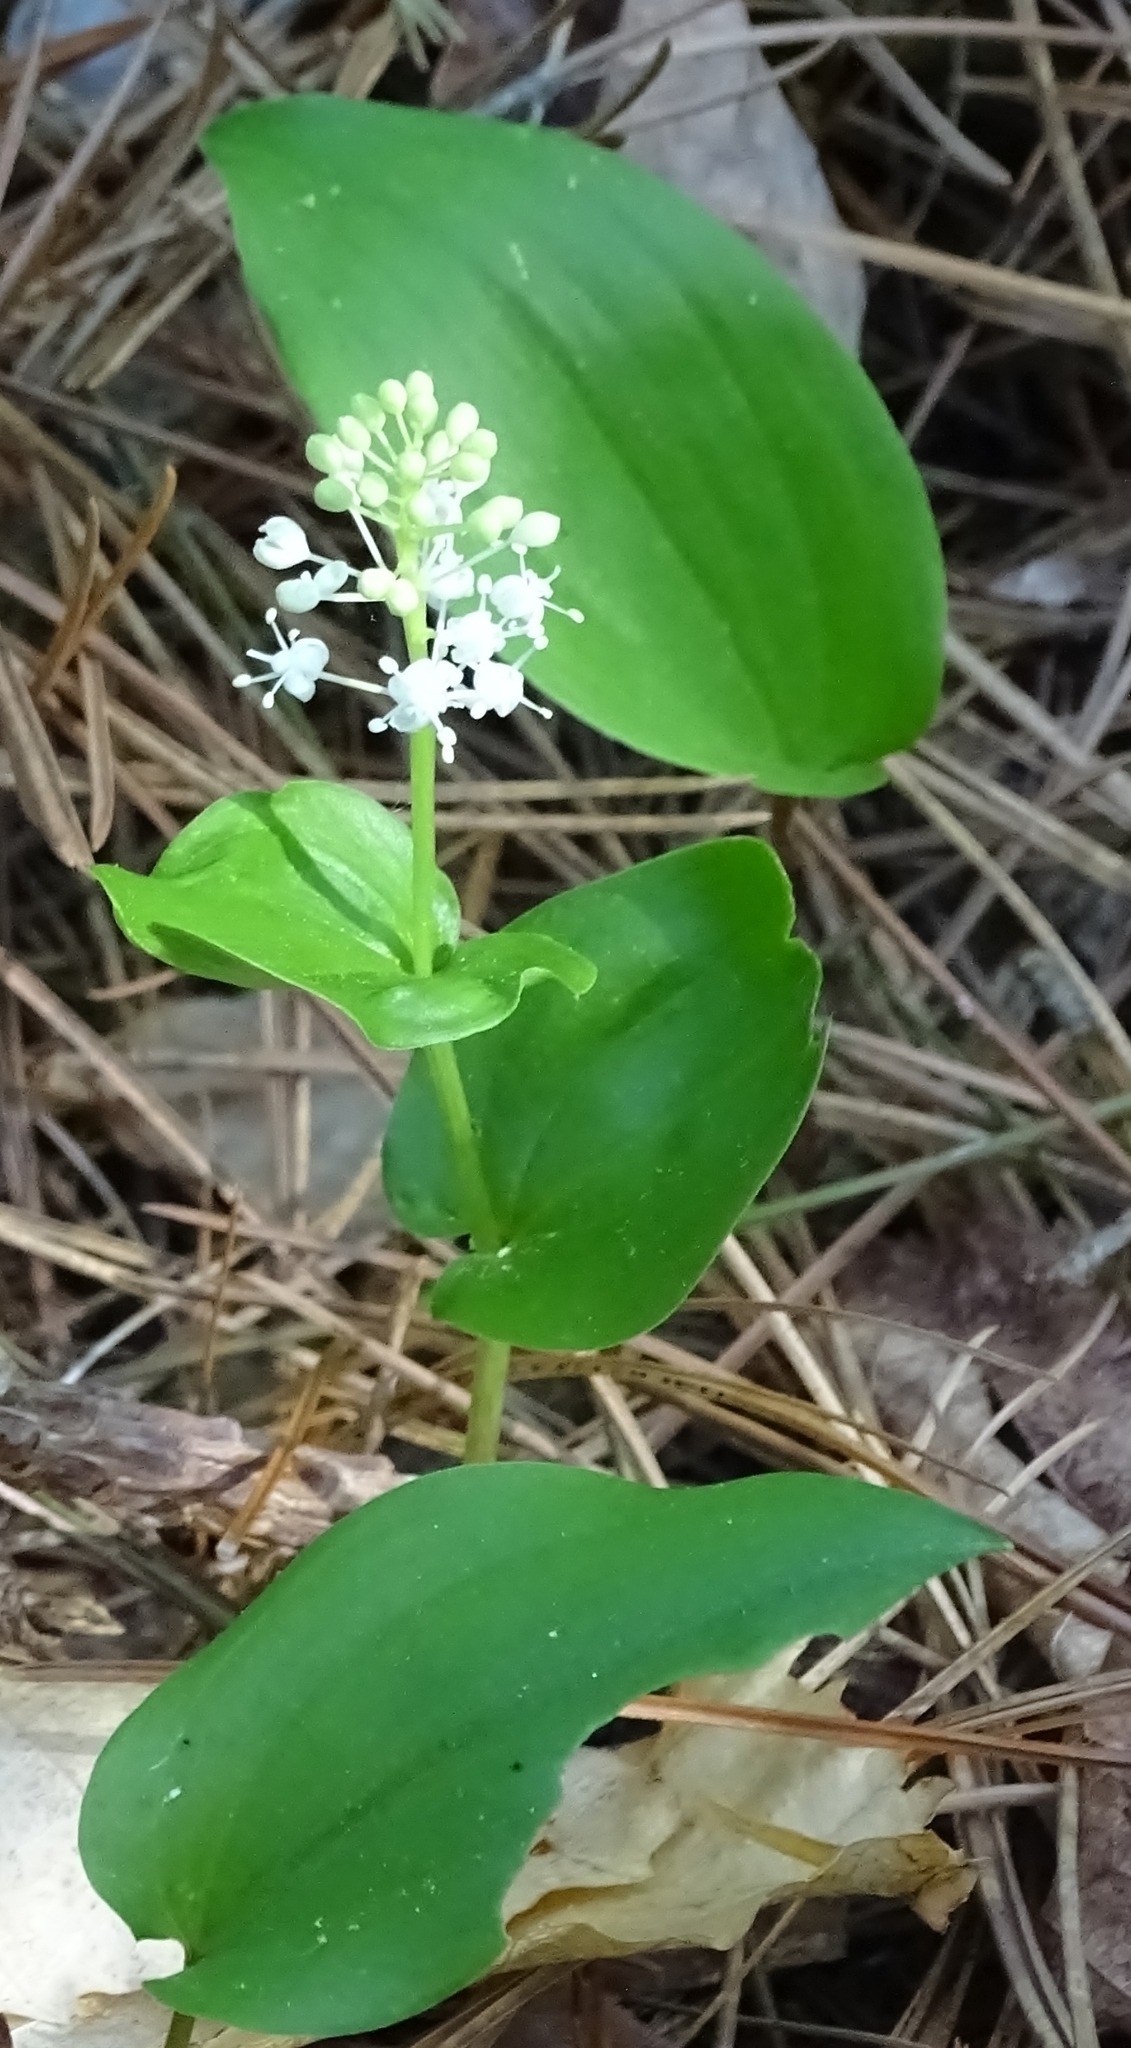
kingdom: Plantae
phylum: Tracheophyta
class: Liliopsida
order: Asparagales
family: Asparagaceae
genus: Maianthemum
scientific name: Maianthemum canadense
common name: False lily-of-the-valley
